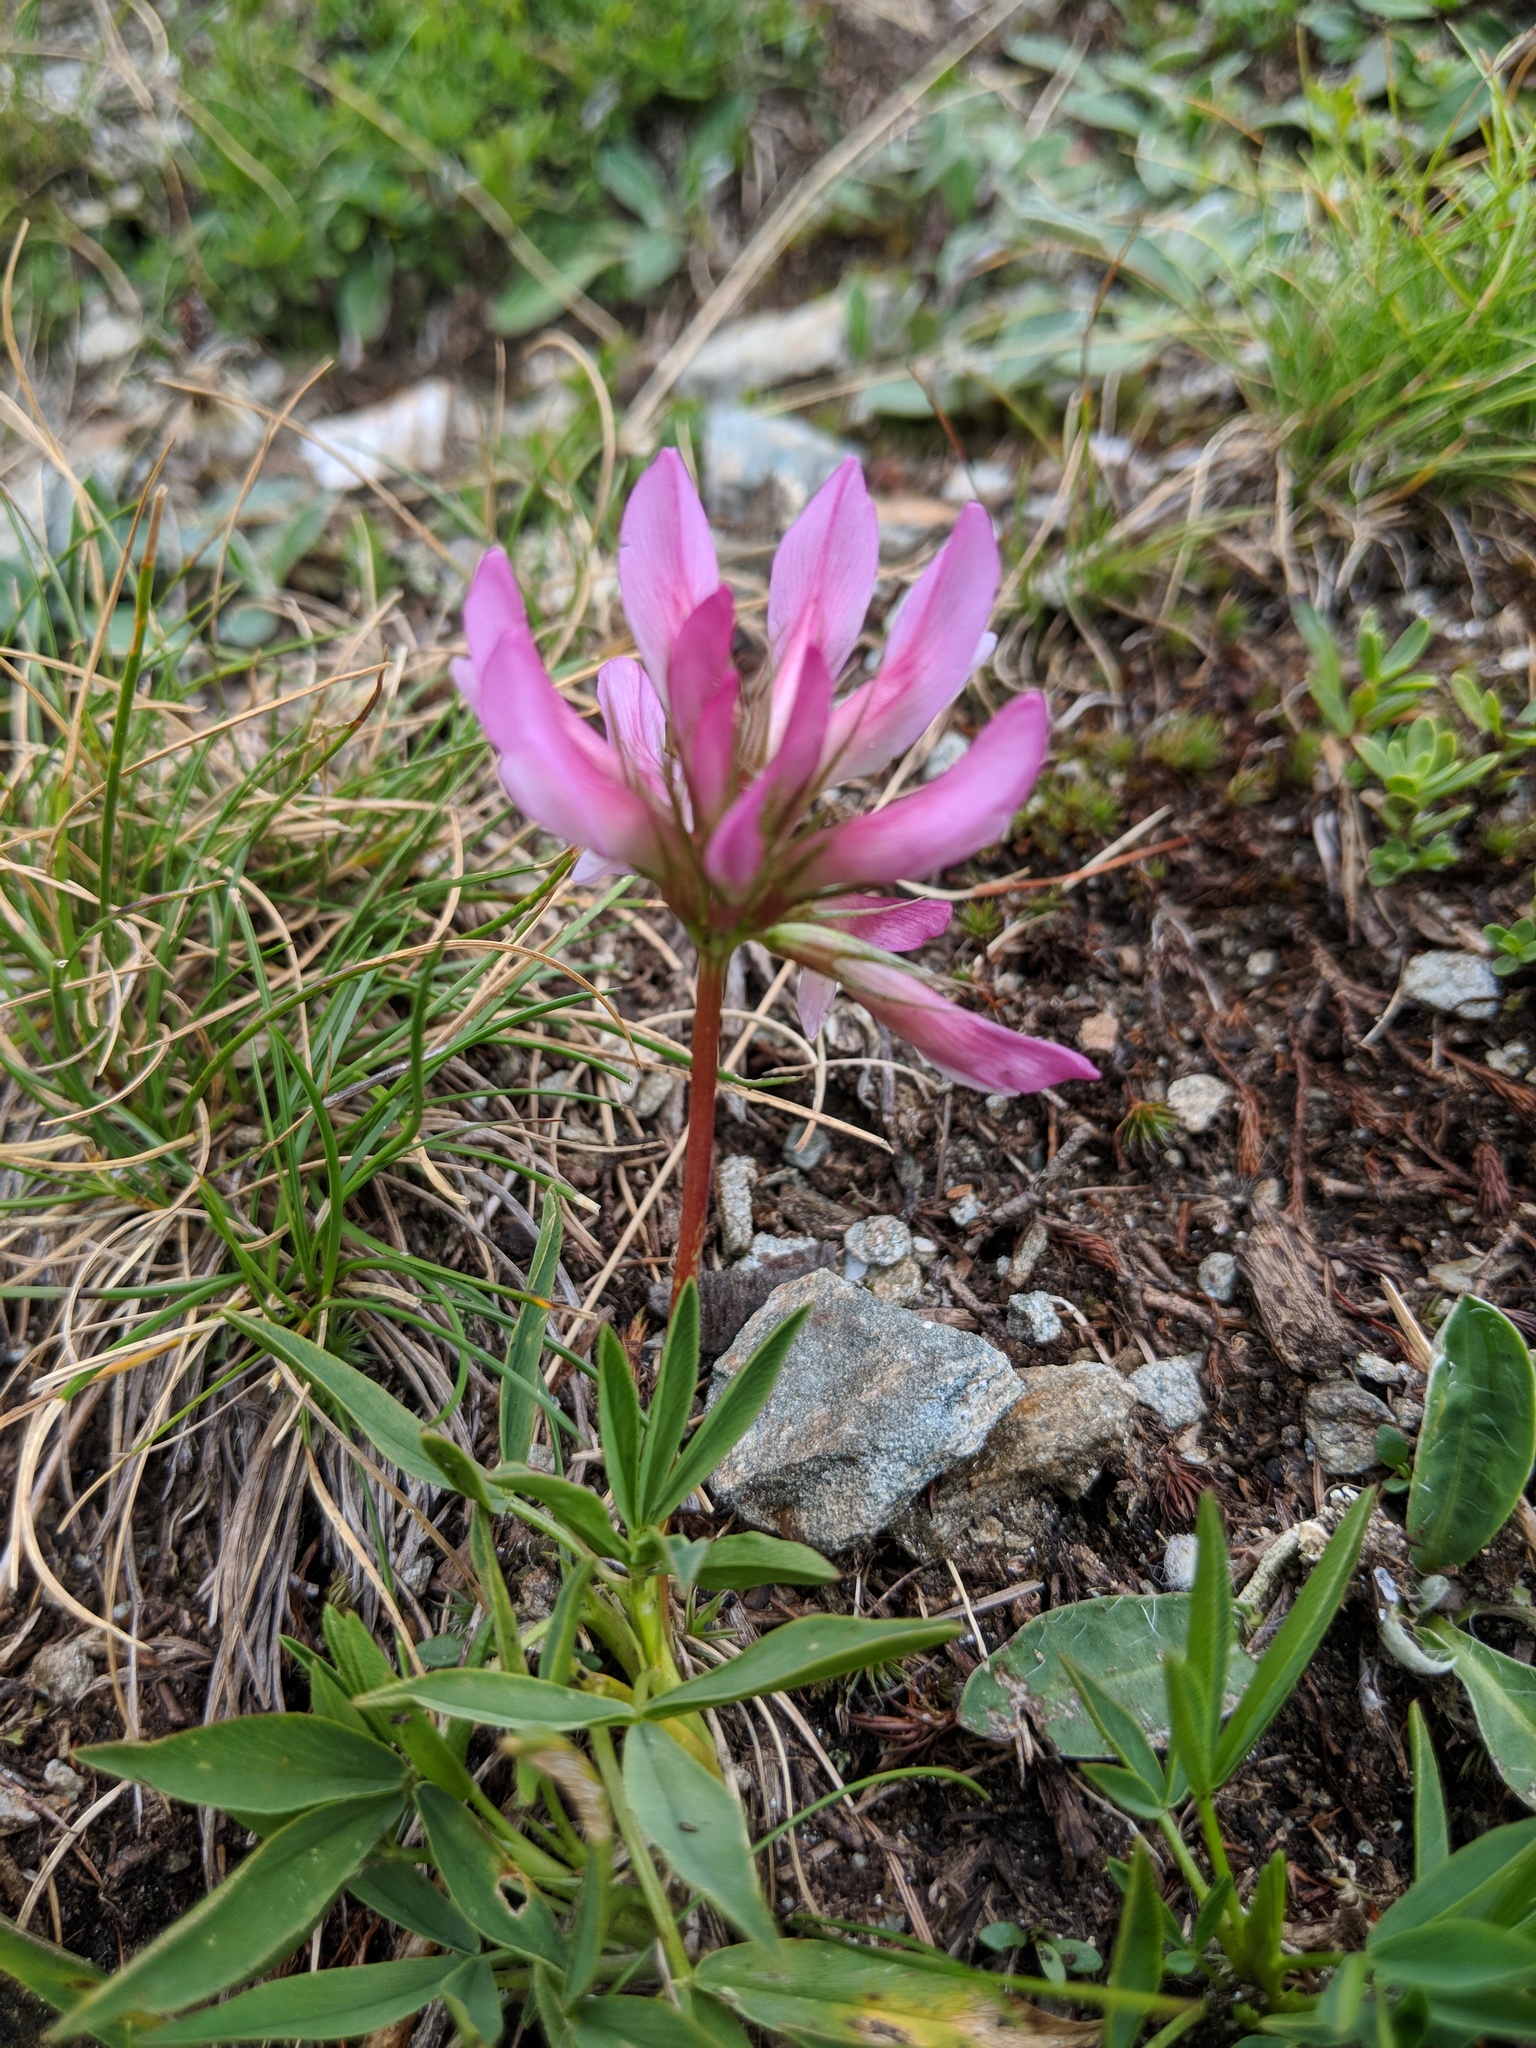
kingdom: Plantae
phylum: Tracheophyta
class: Magnoliopsida
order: Fabales
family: Fabaceae
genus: Trifolium
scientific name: Trifolium alpinum
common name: Alpine clover
